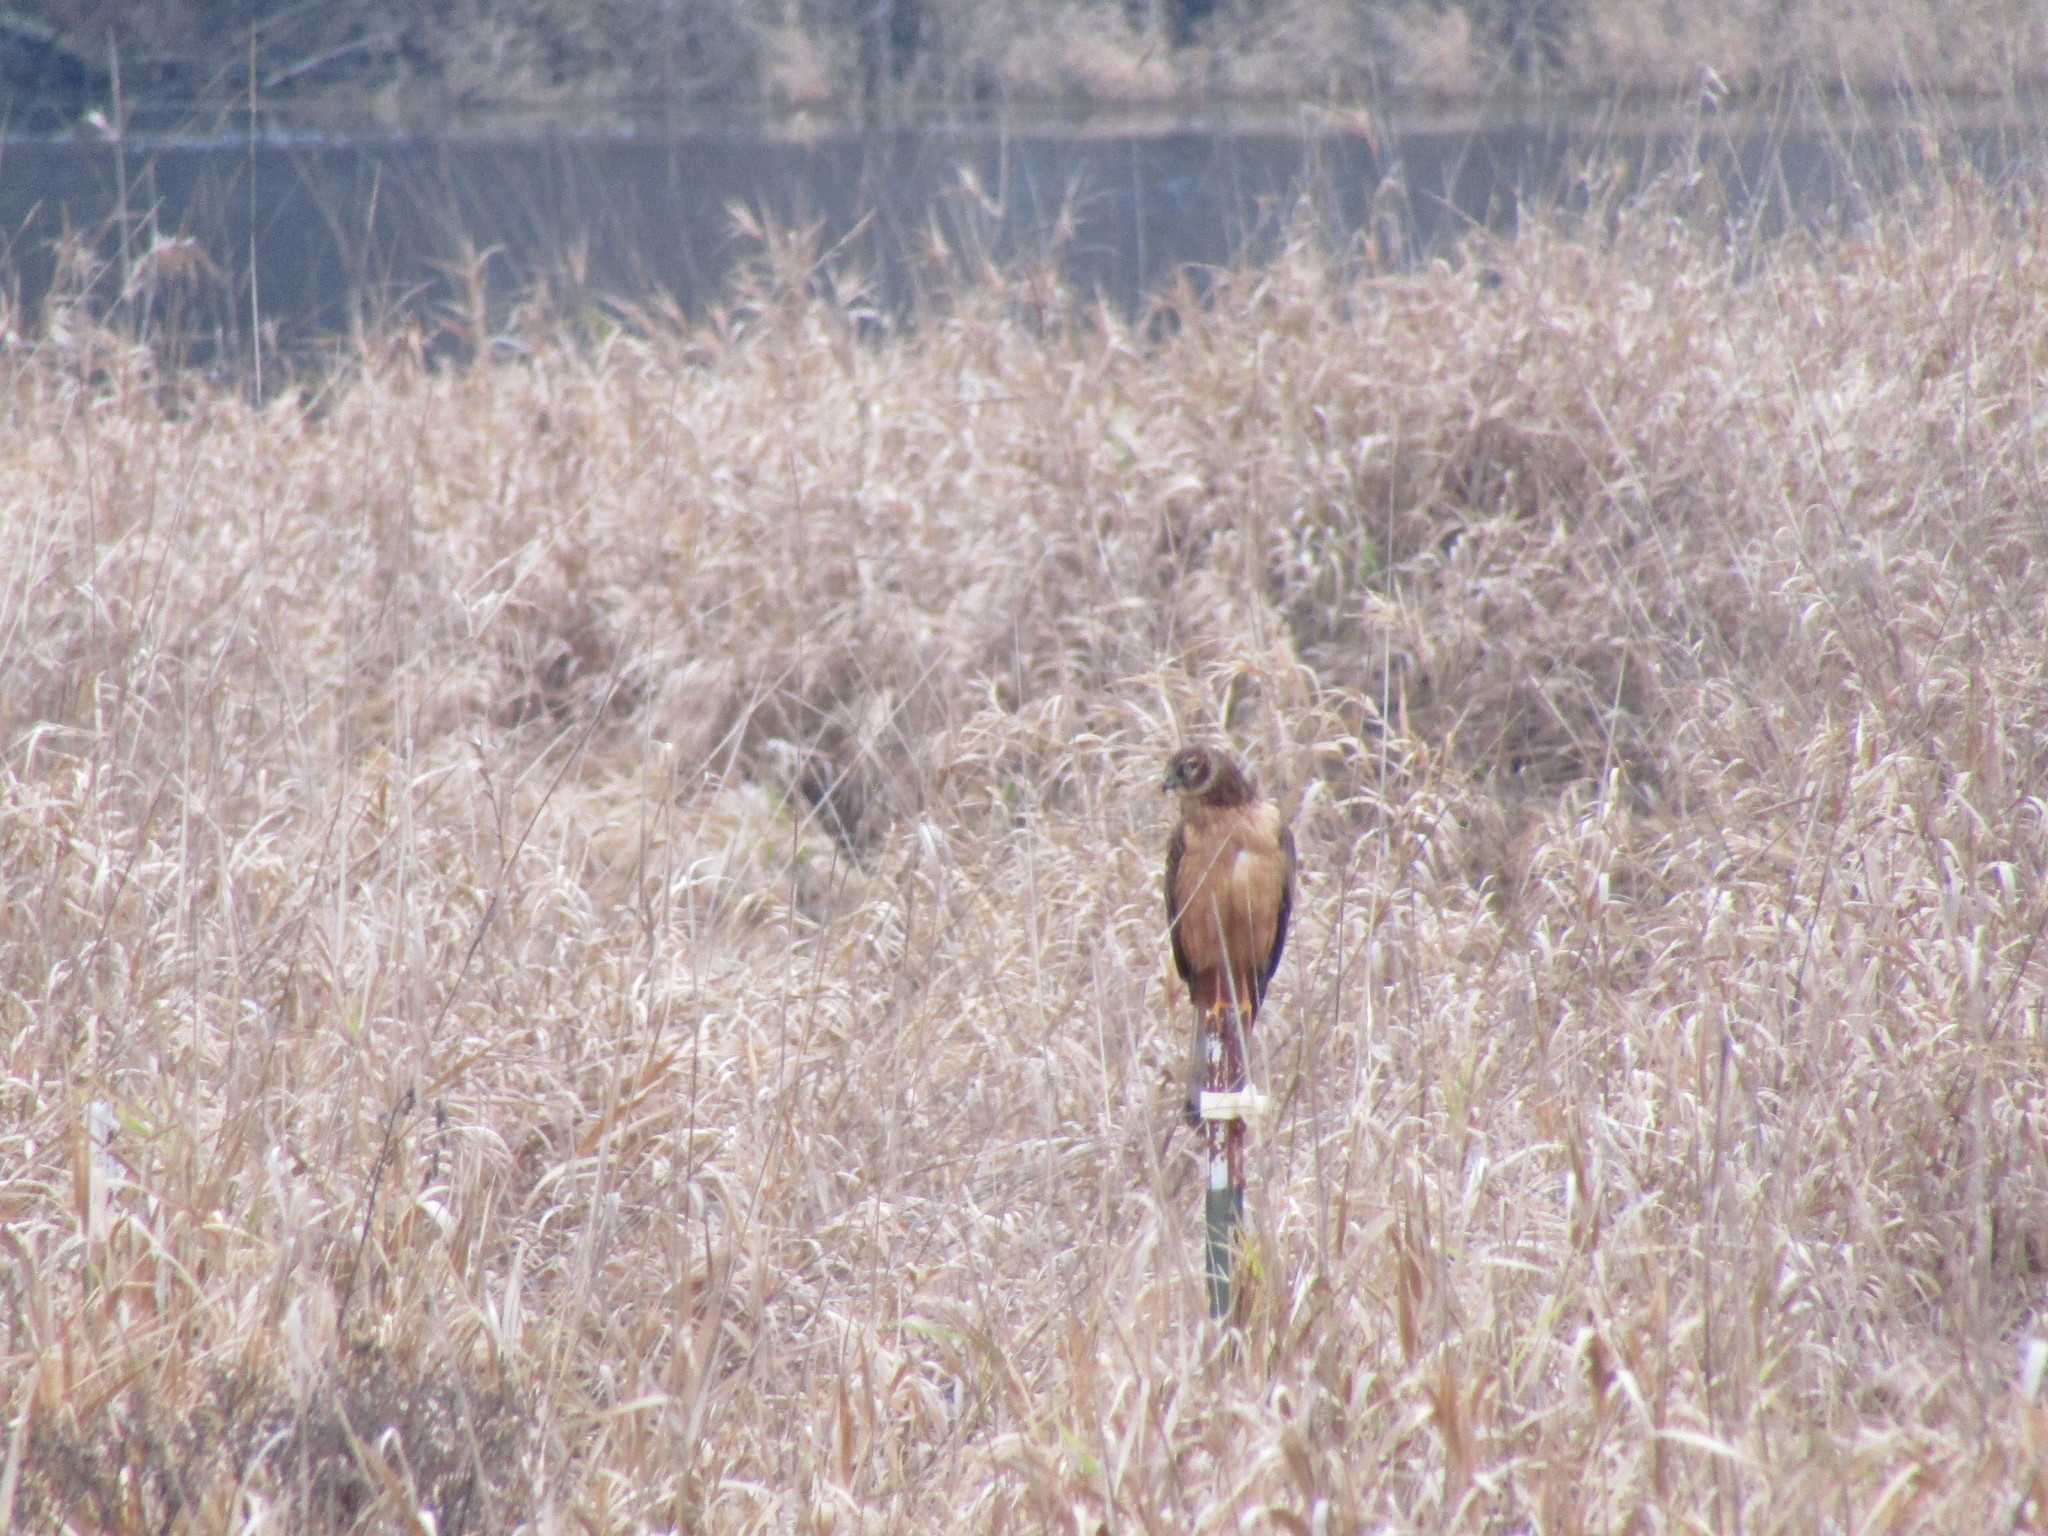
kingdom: Animalia
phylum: Chordata
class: Aves
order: Accipitriformes
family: Accipitridae
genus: Circus
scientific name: Circus cyaneus
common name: Hen harrier
